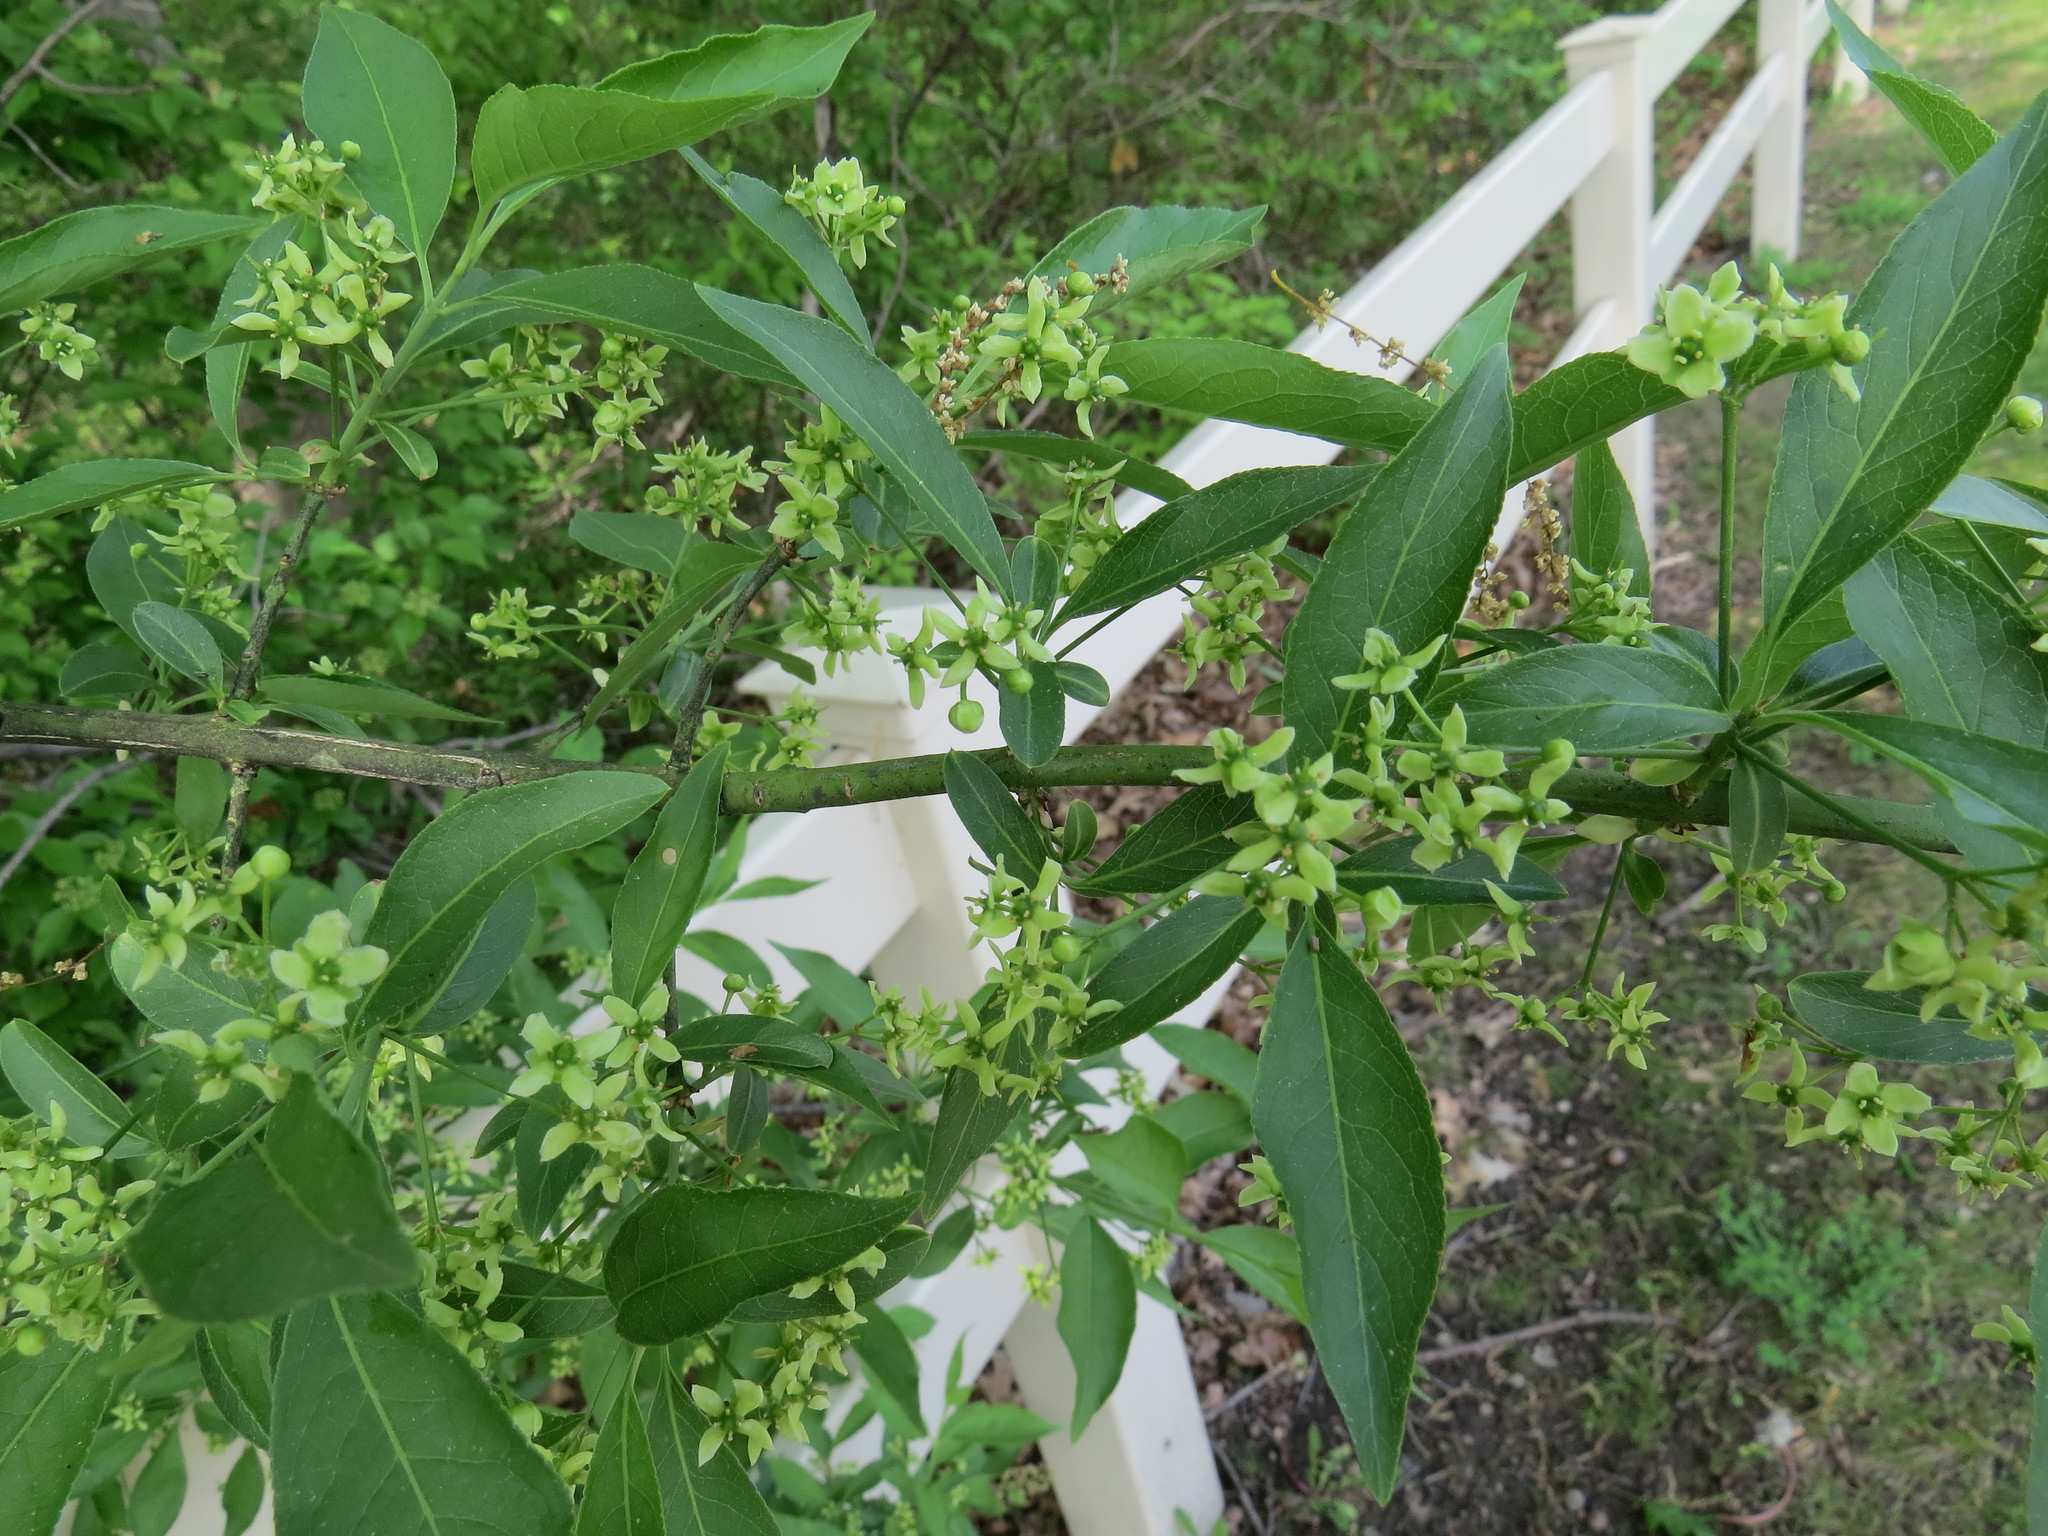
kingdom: Plantae
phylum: Tracheophyta
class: Magnoliopsida
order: Celastrales
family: Celastraceae
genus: Euonymus
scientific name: Euonymus europaeus
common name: Spindle
